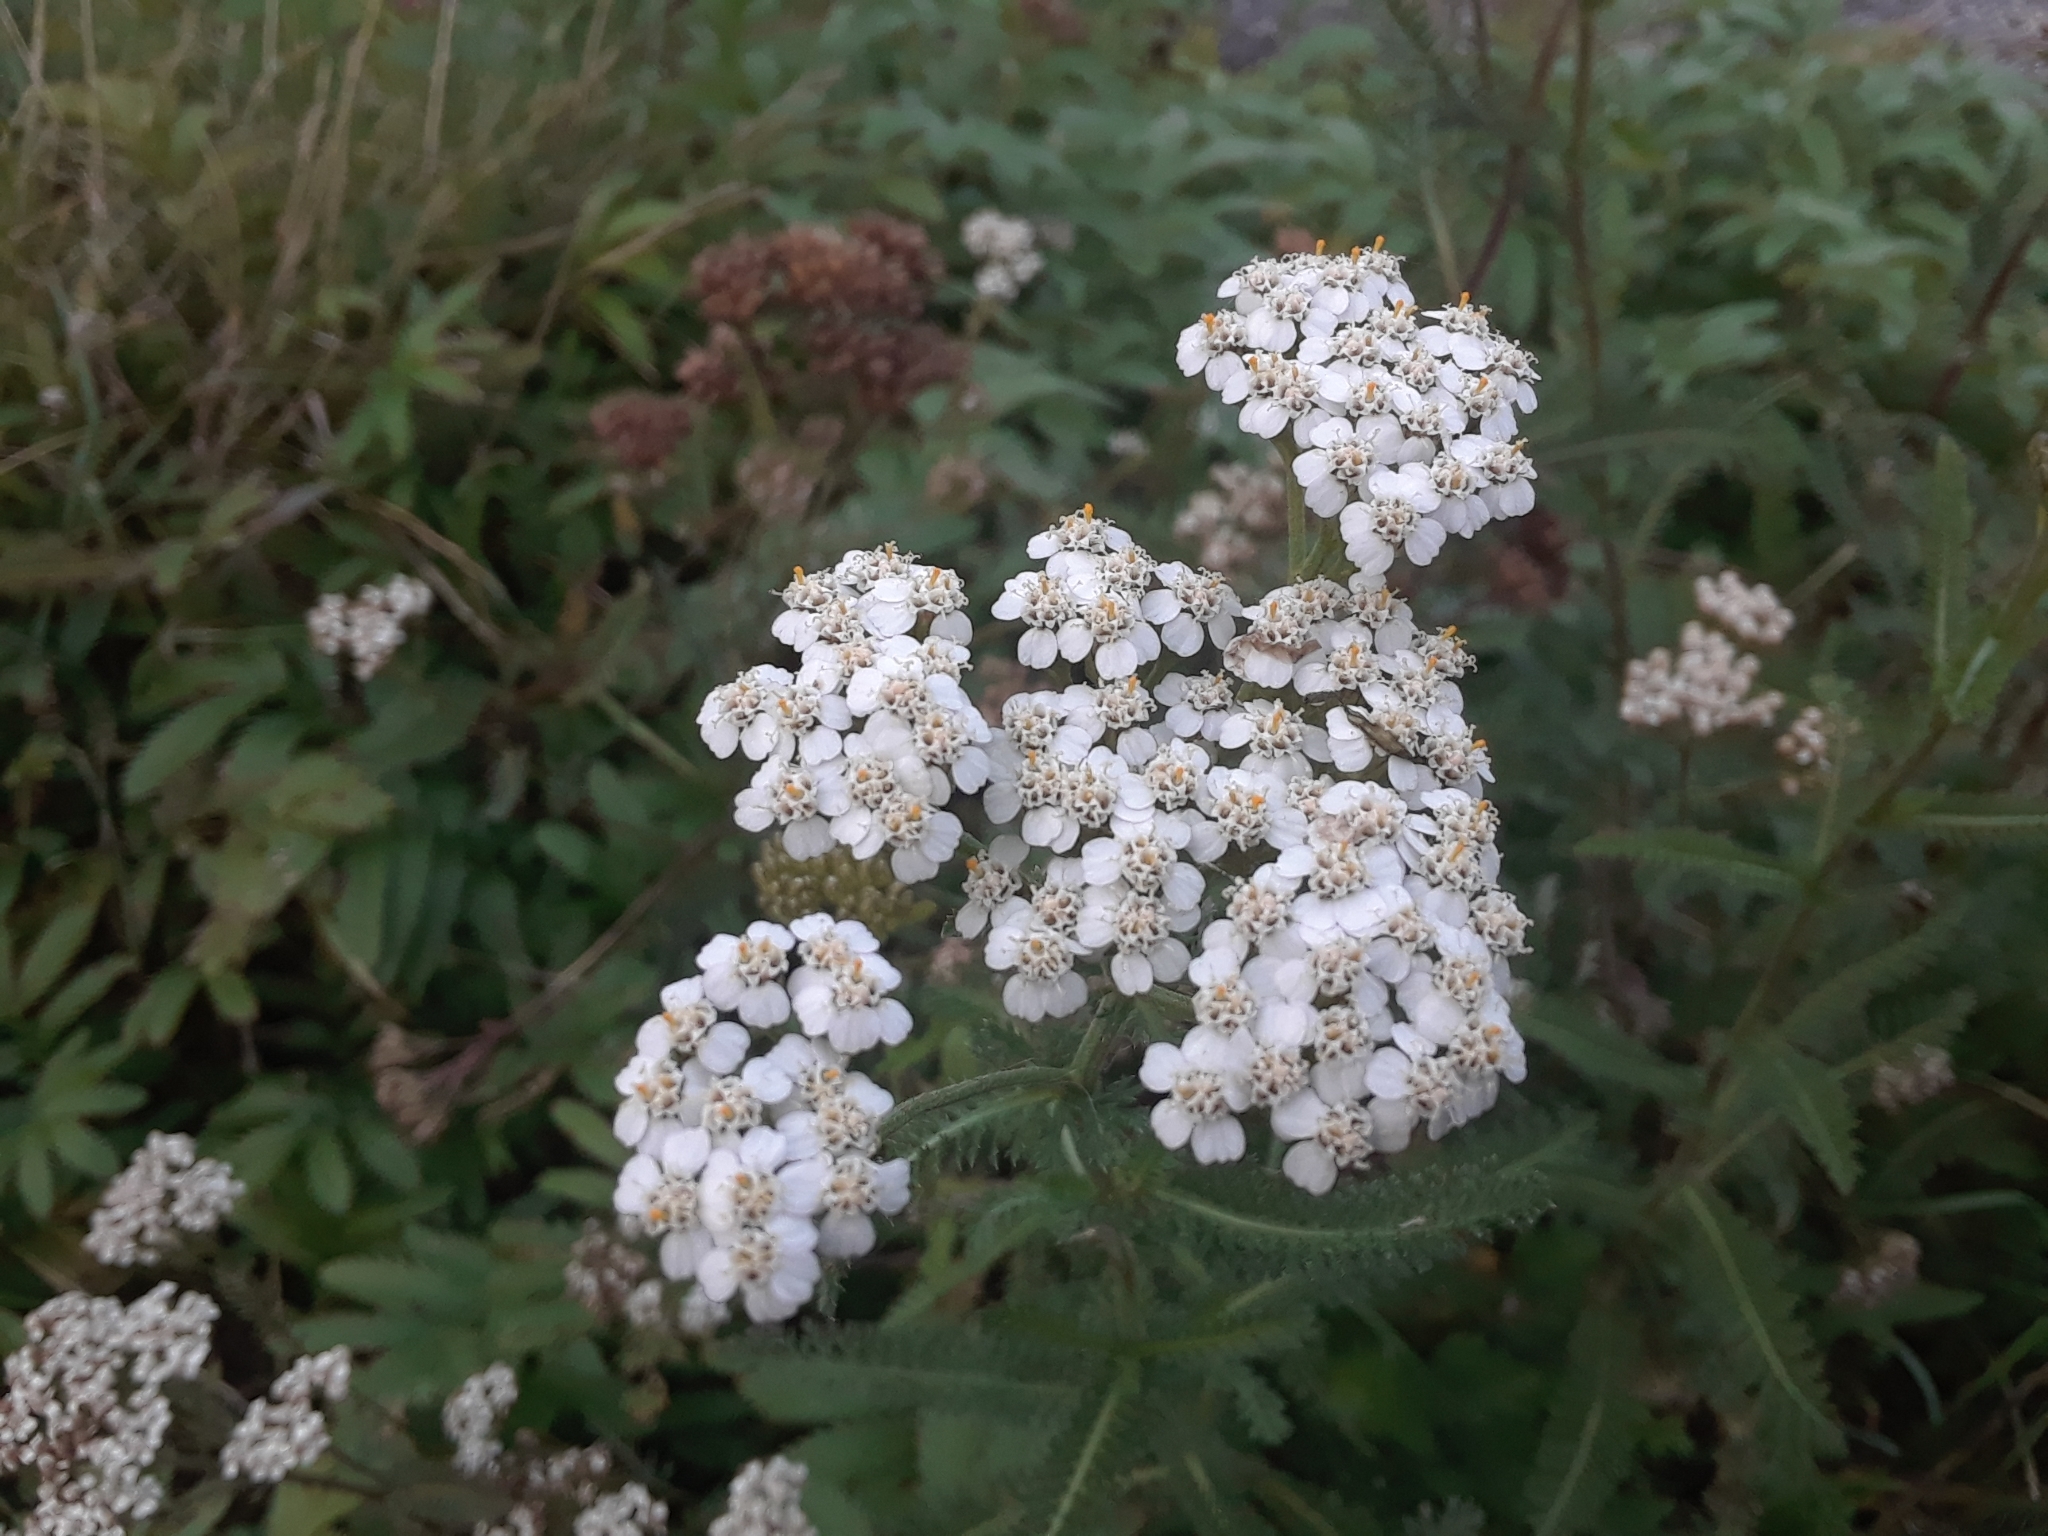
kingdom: Plantae
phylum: Tracheophyta
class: Magnoliopsida
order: Asterales
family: Asteraceae
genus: Achillea
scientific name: Achillea millefolium
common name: Yarrow
